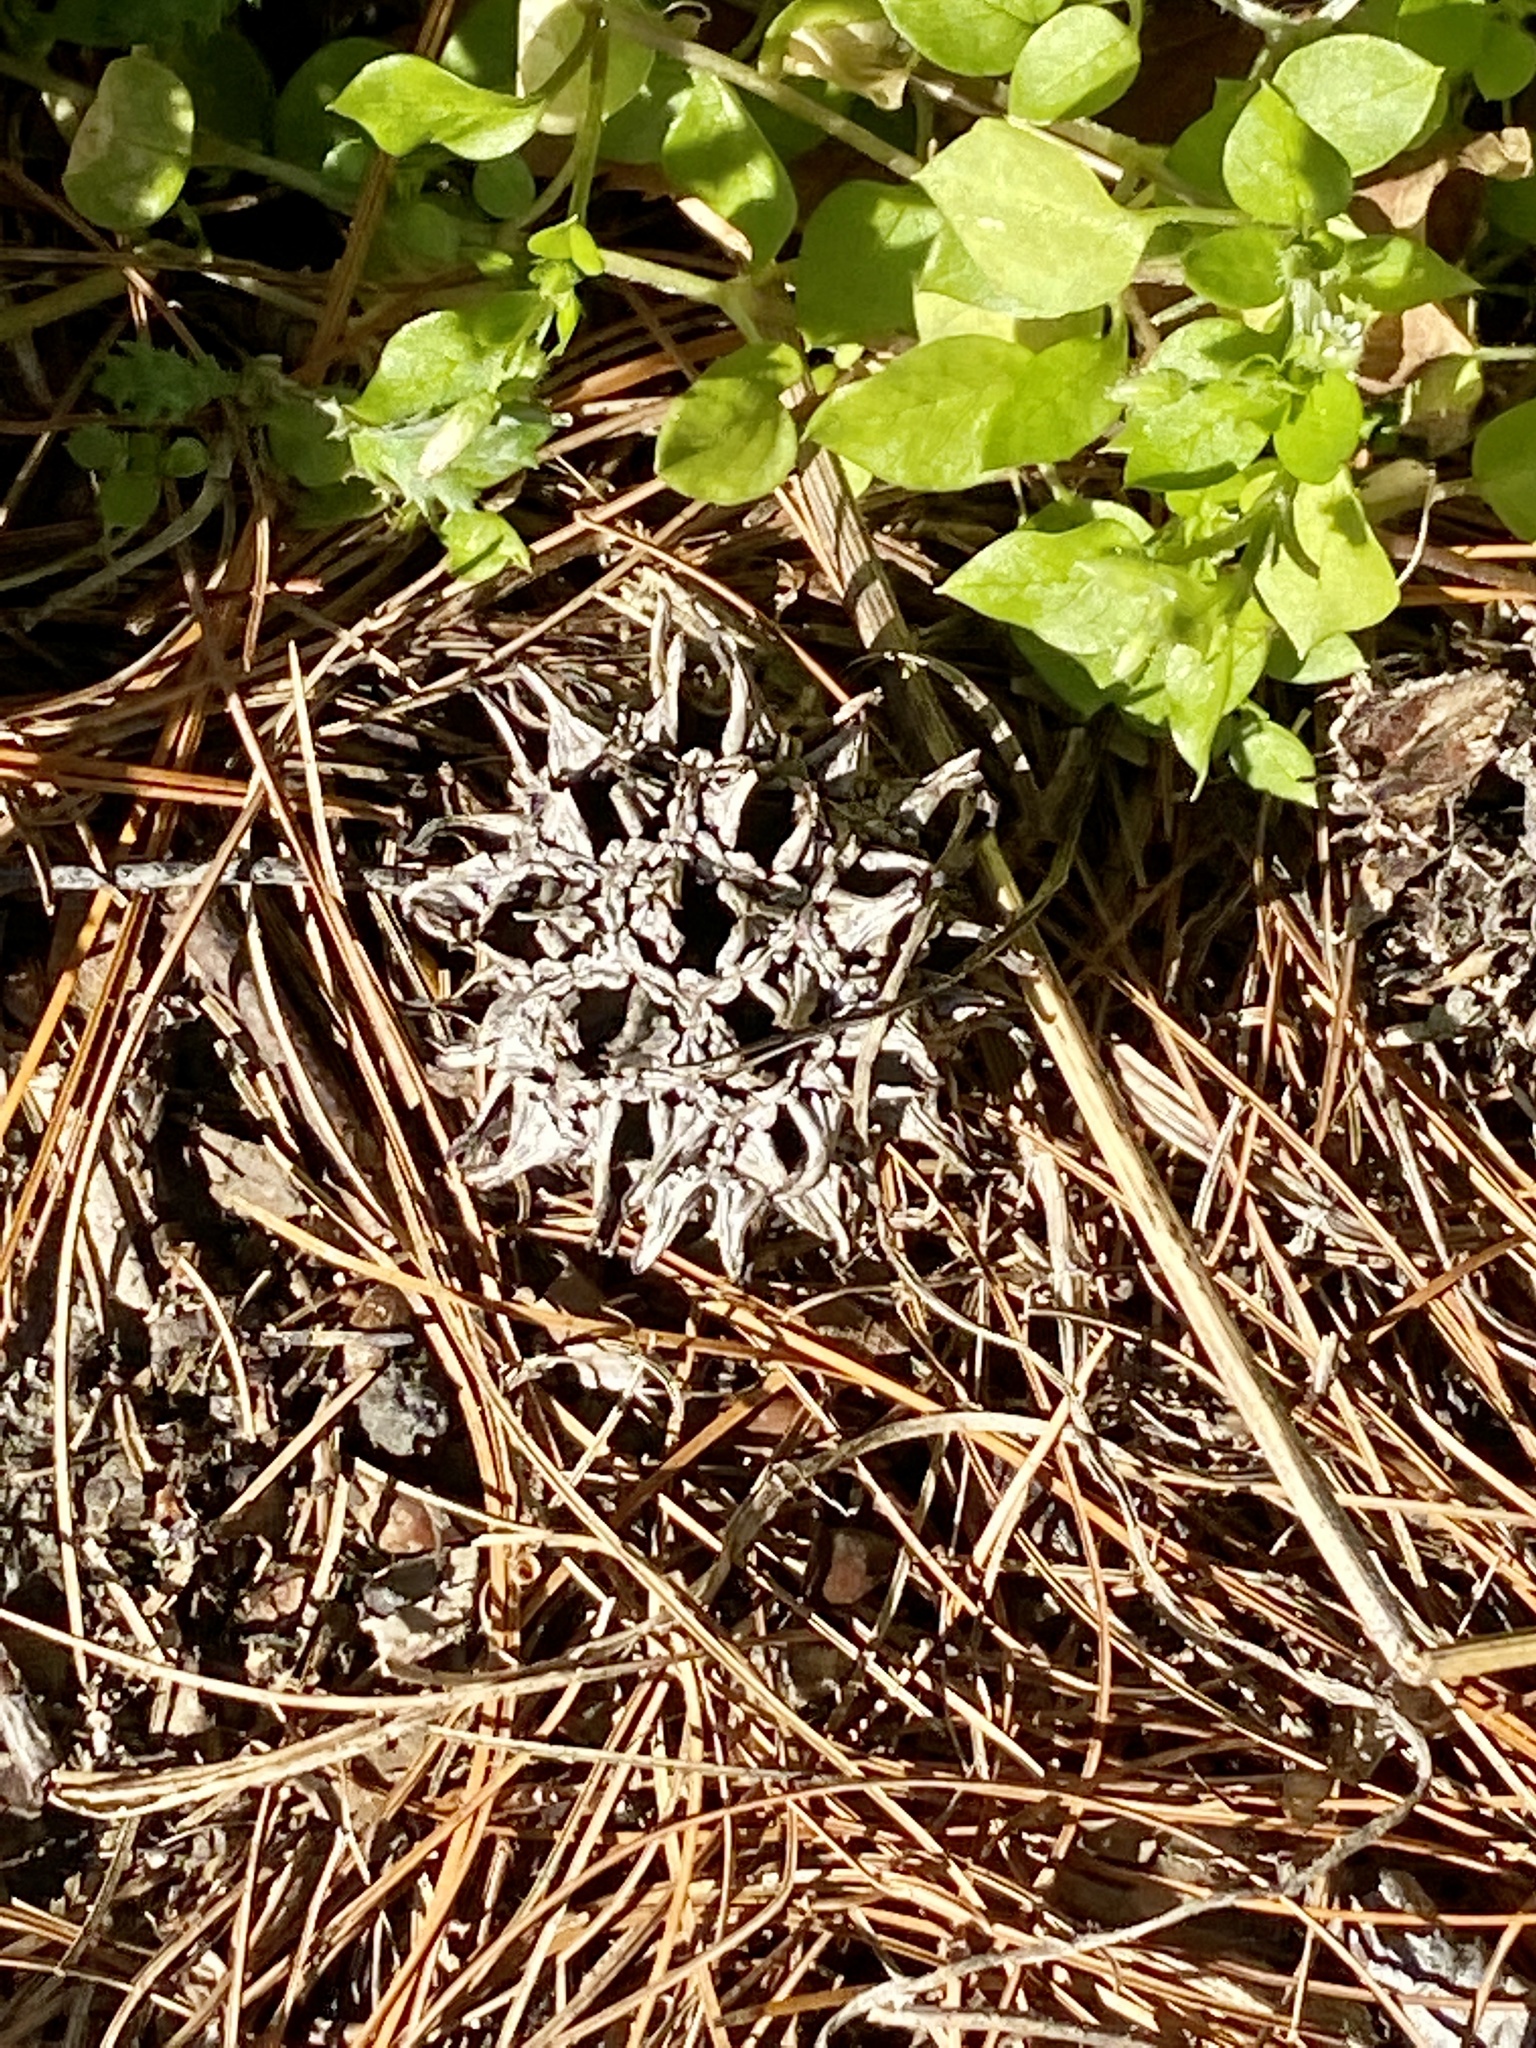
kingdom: Plantae
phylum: Tracheophyta
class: Magnoliopsida
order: Saxifragales
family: Altingiaceae
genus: Liquidambar
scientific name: Liquidambar styraciflua
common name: Sweet gum
